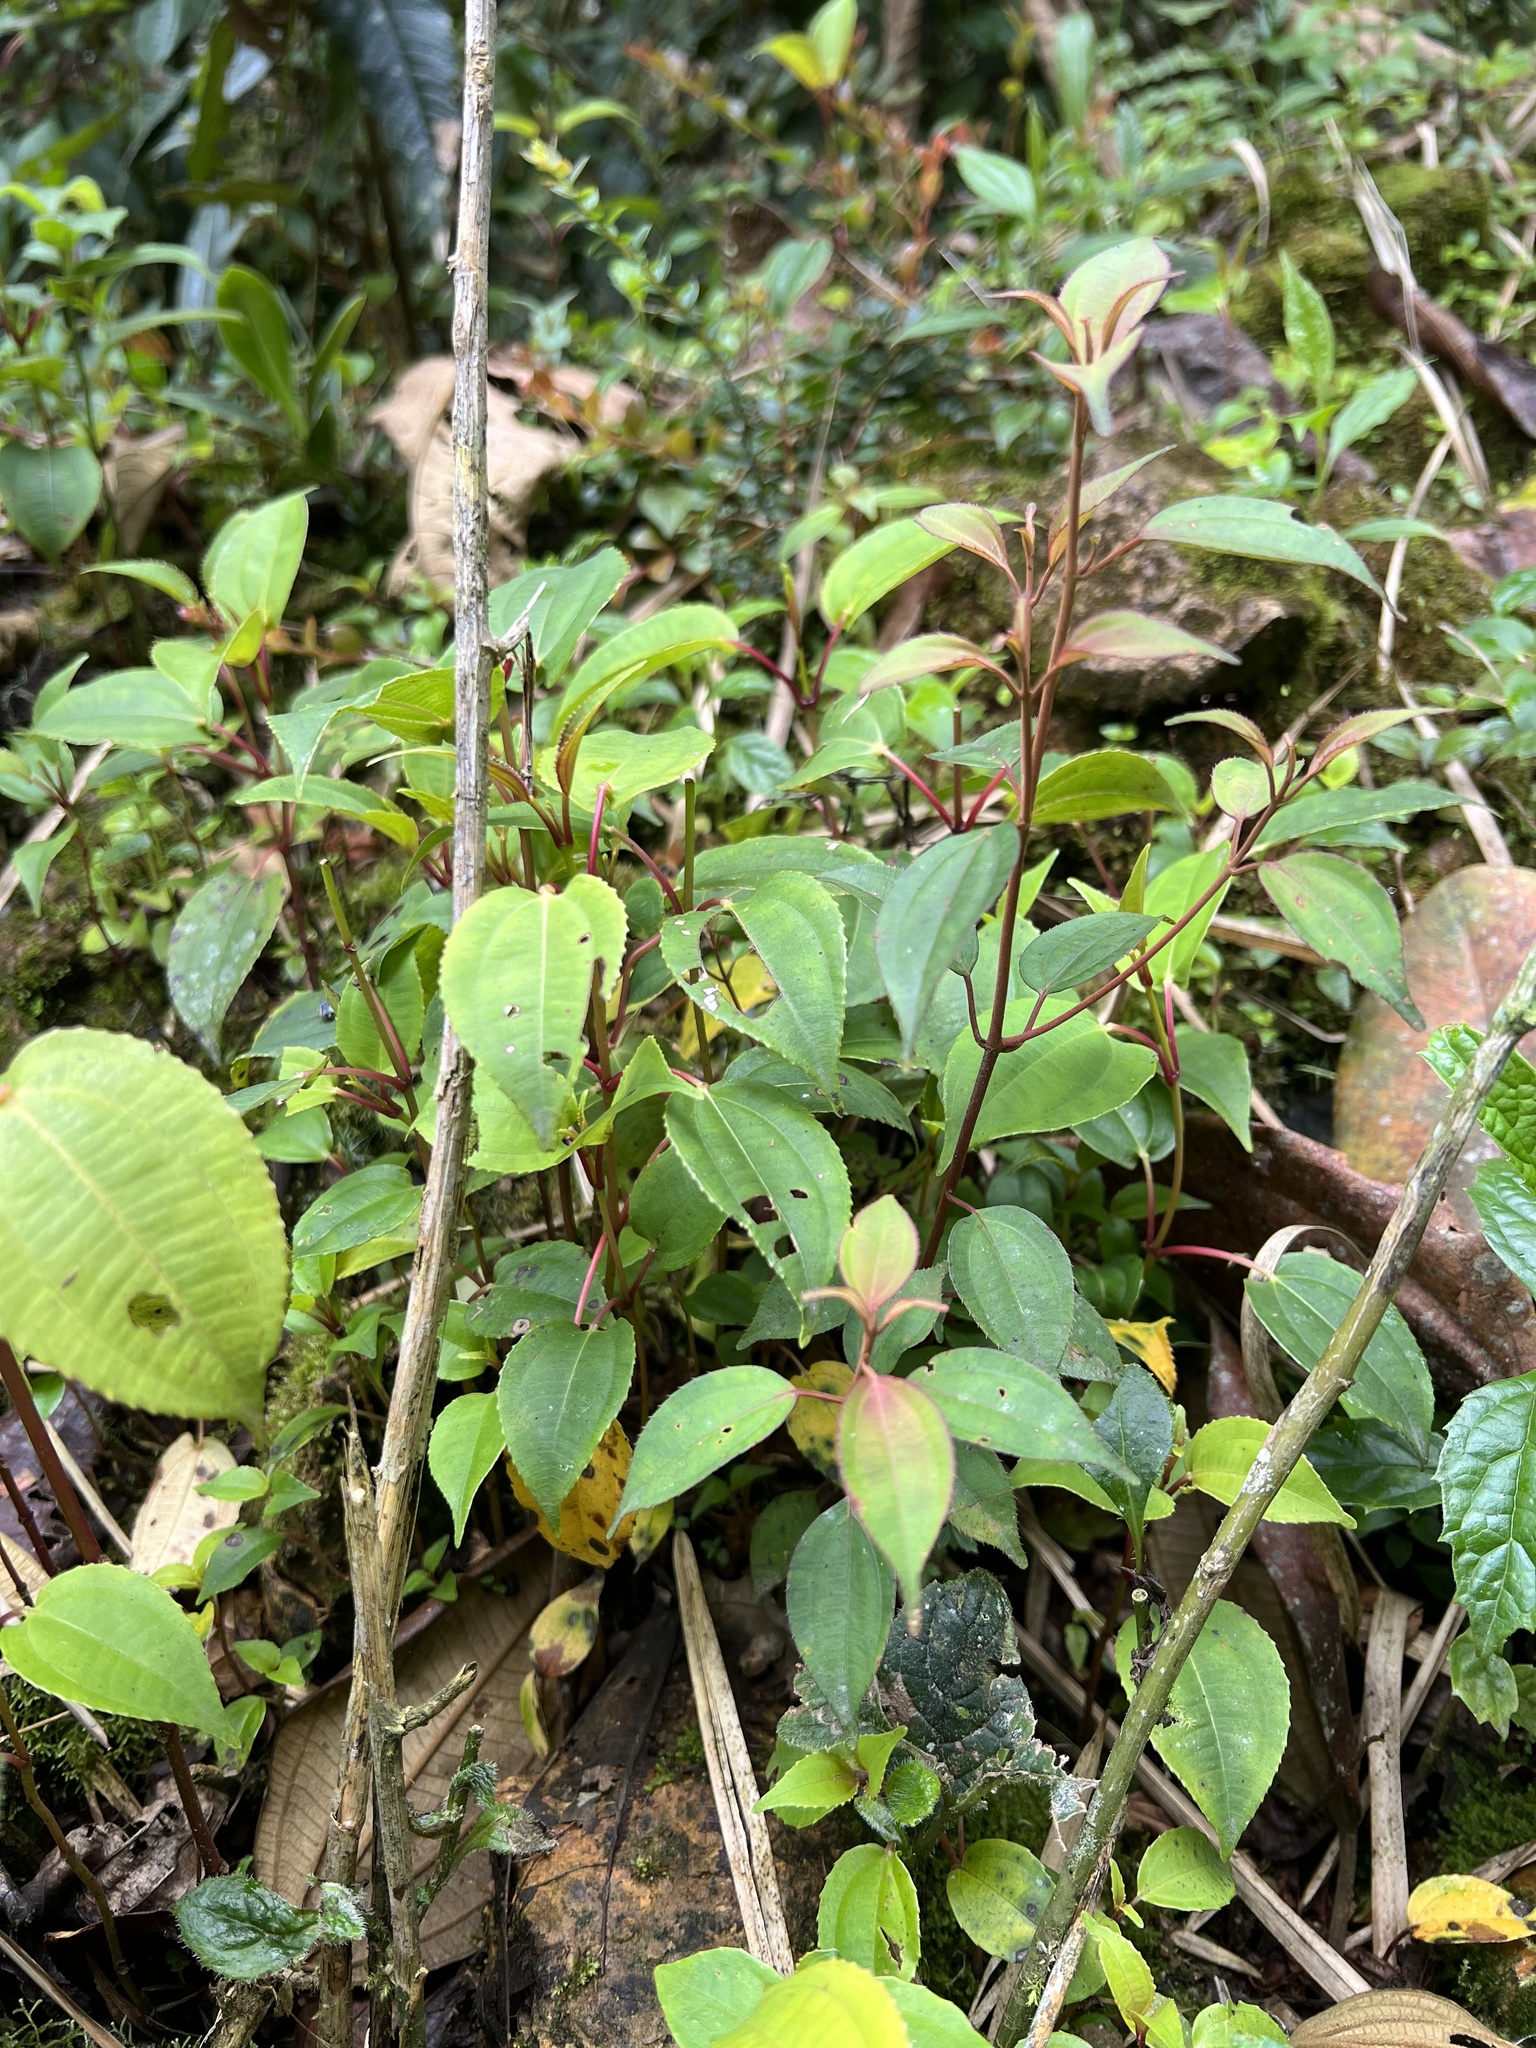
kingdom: Plantae
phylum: Tracheophyta
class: Magnoliopsida
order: Myrtales
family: Melastomataceae
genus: Axinaea
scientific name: Axinaea scutigera
